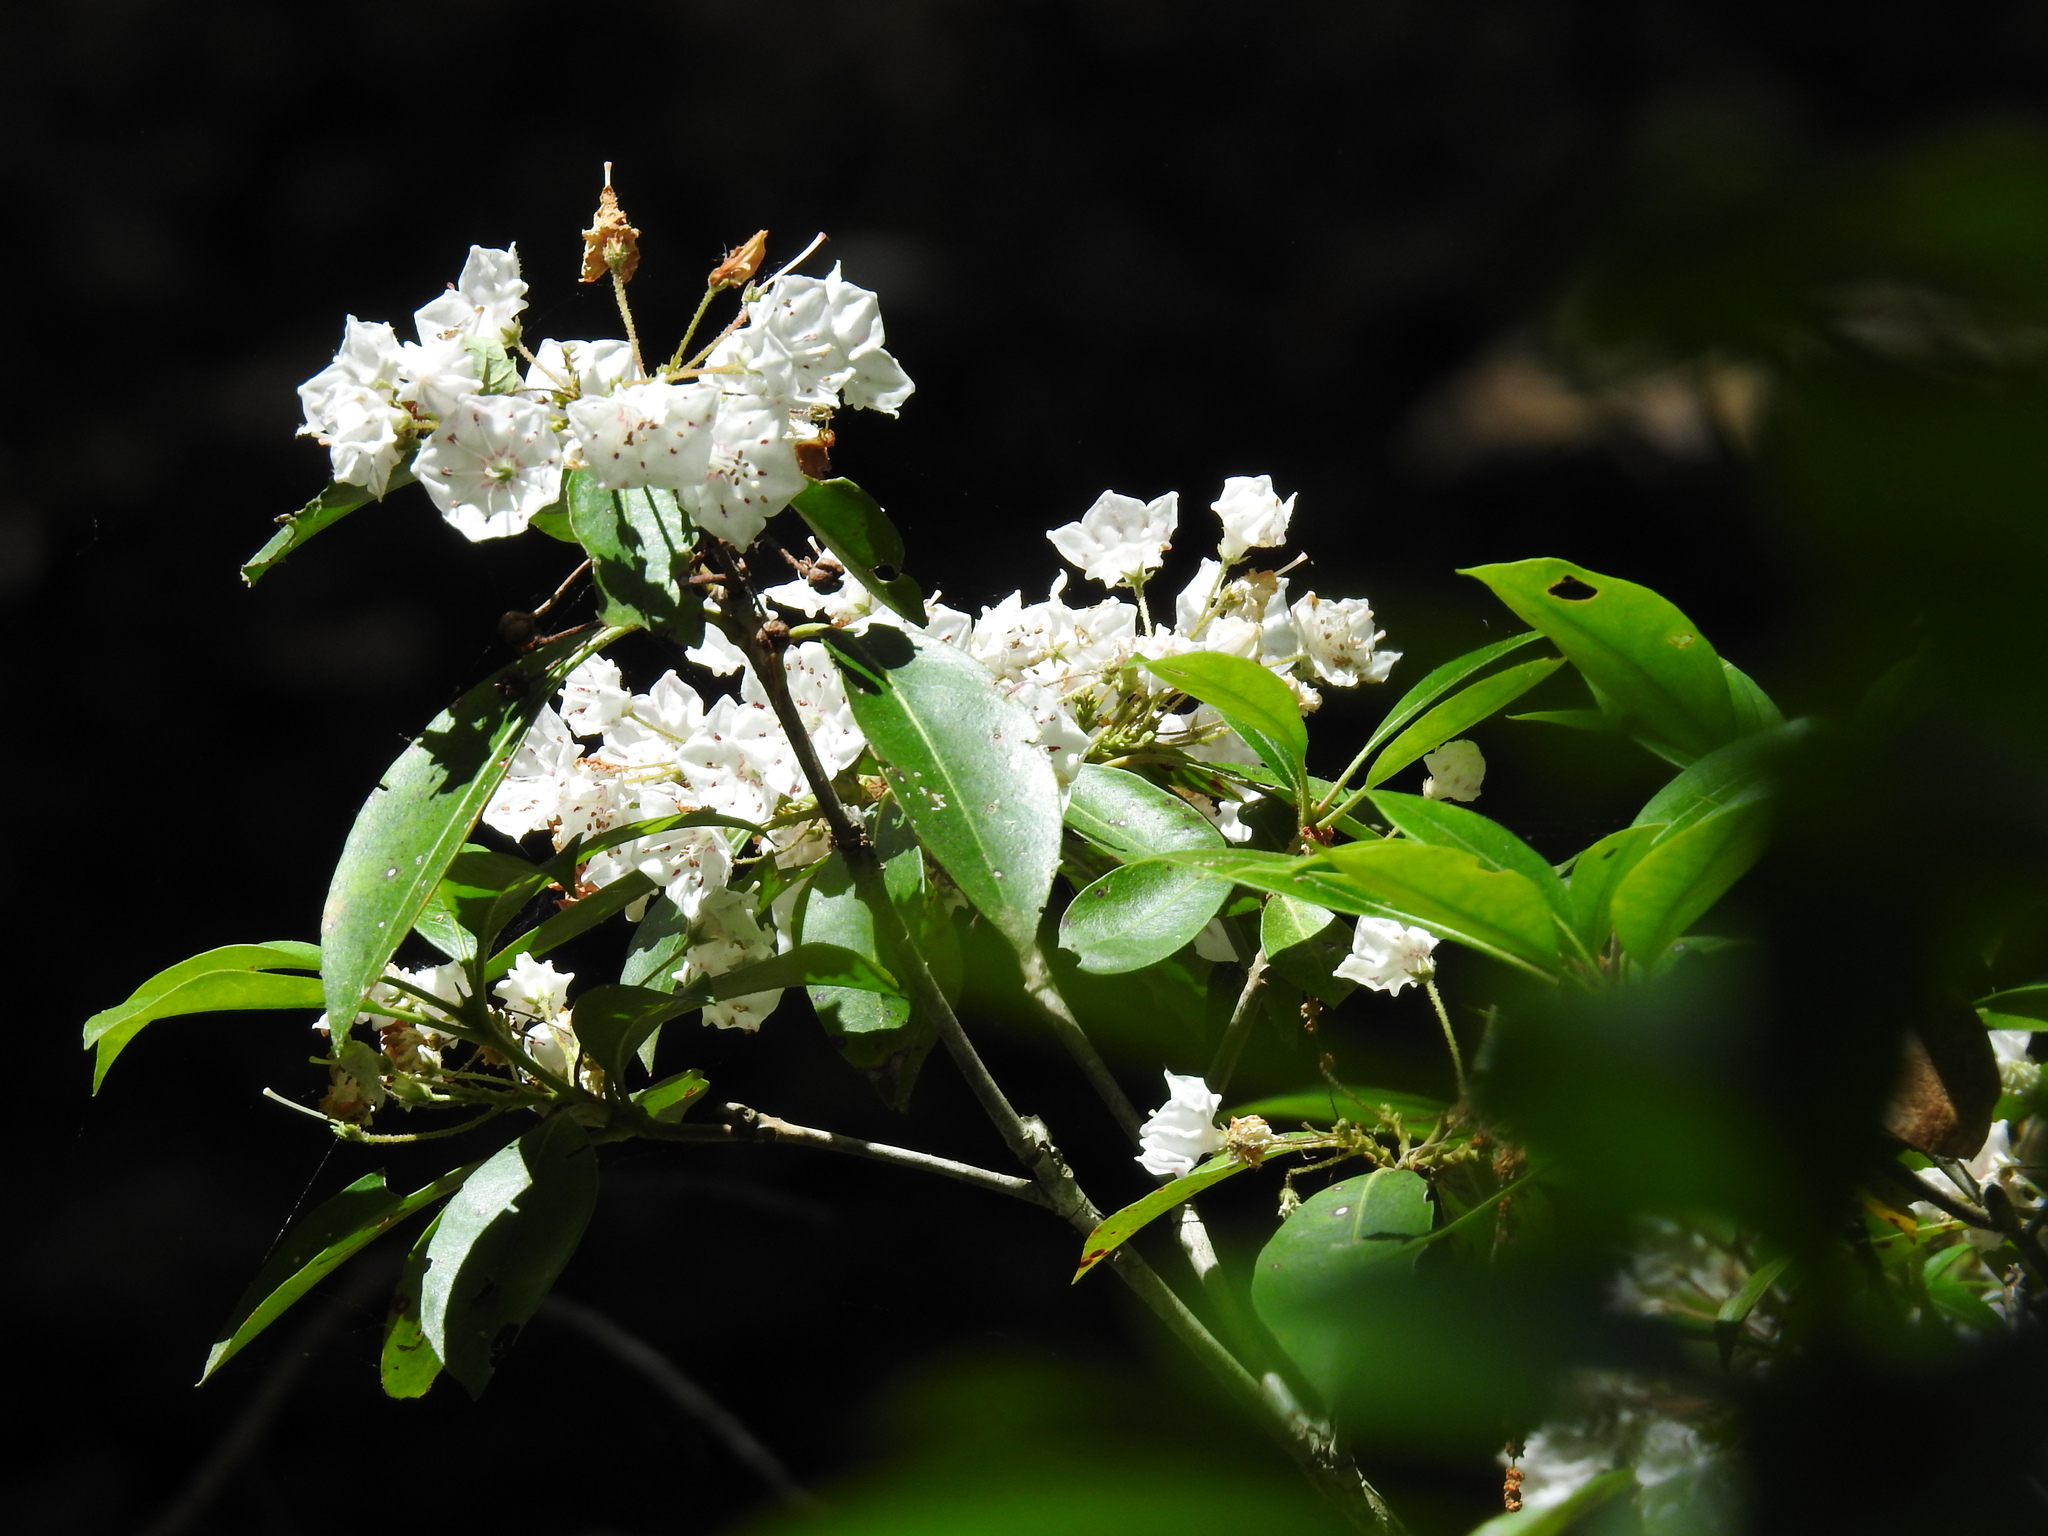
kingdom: Plantae
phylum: Tracheophyta
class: Magnoliopsida
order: Ericales
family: Ericaceae
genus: Kalmia
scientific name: Kalmia latifolia
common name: Mountain-laurel
